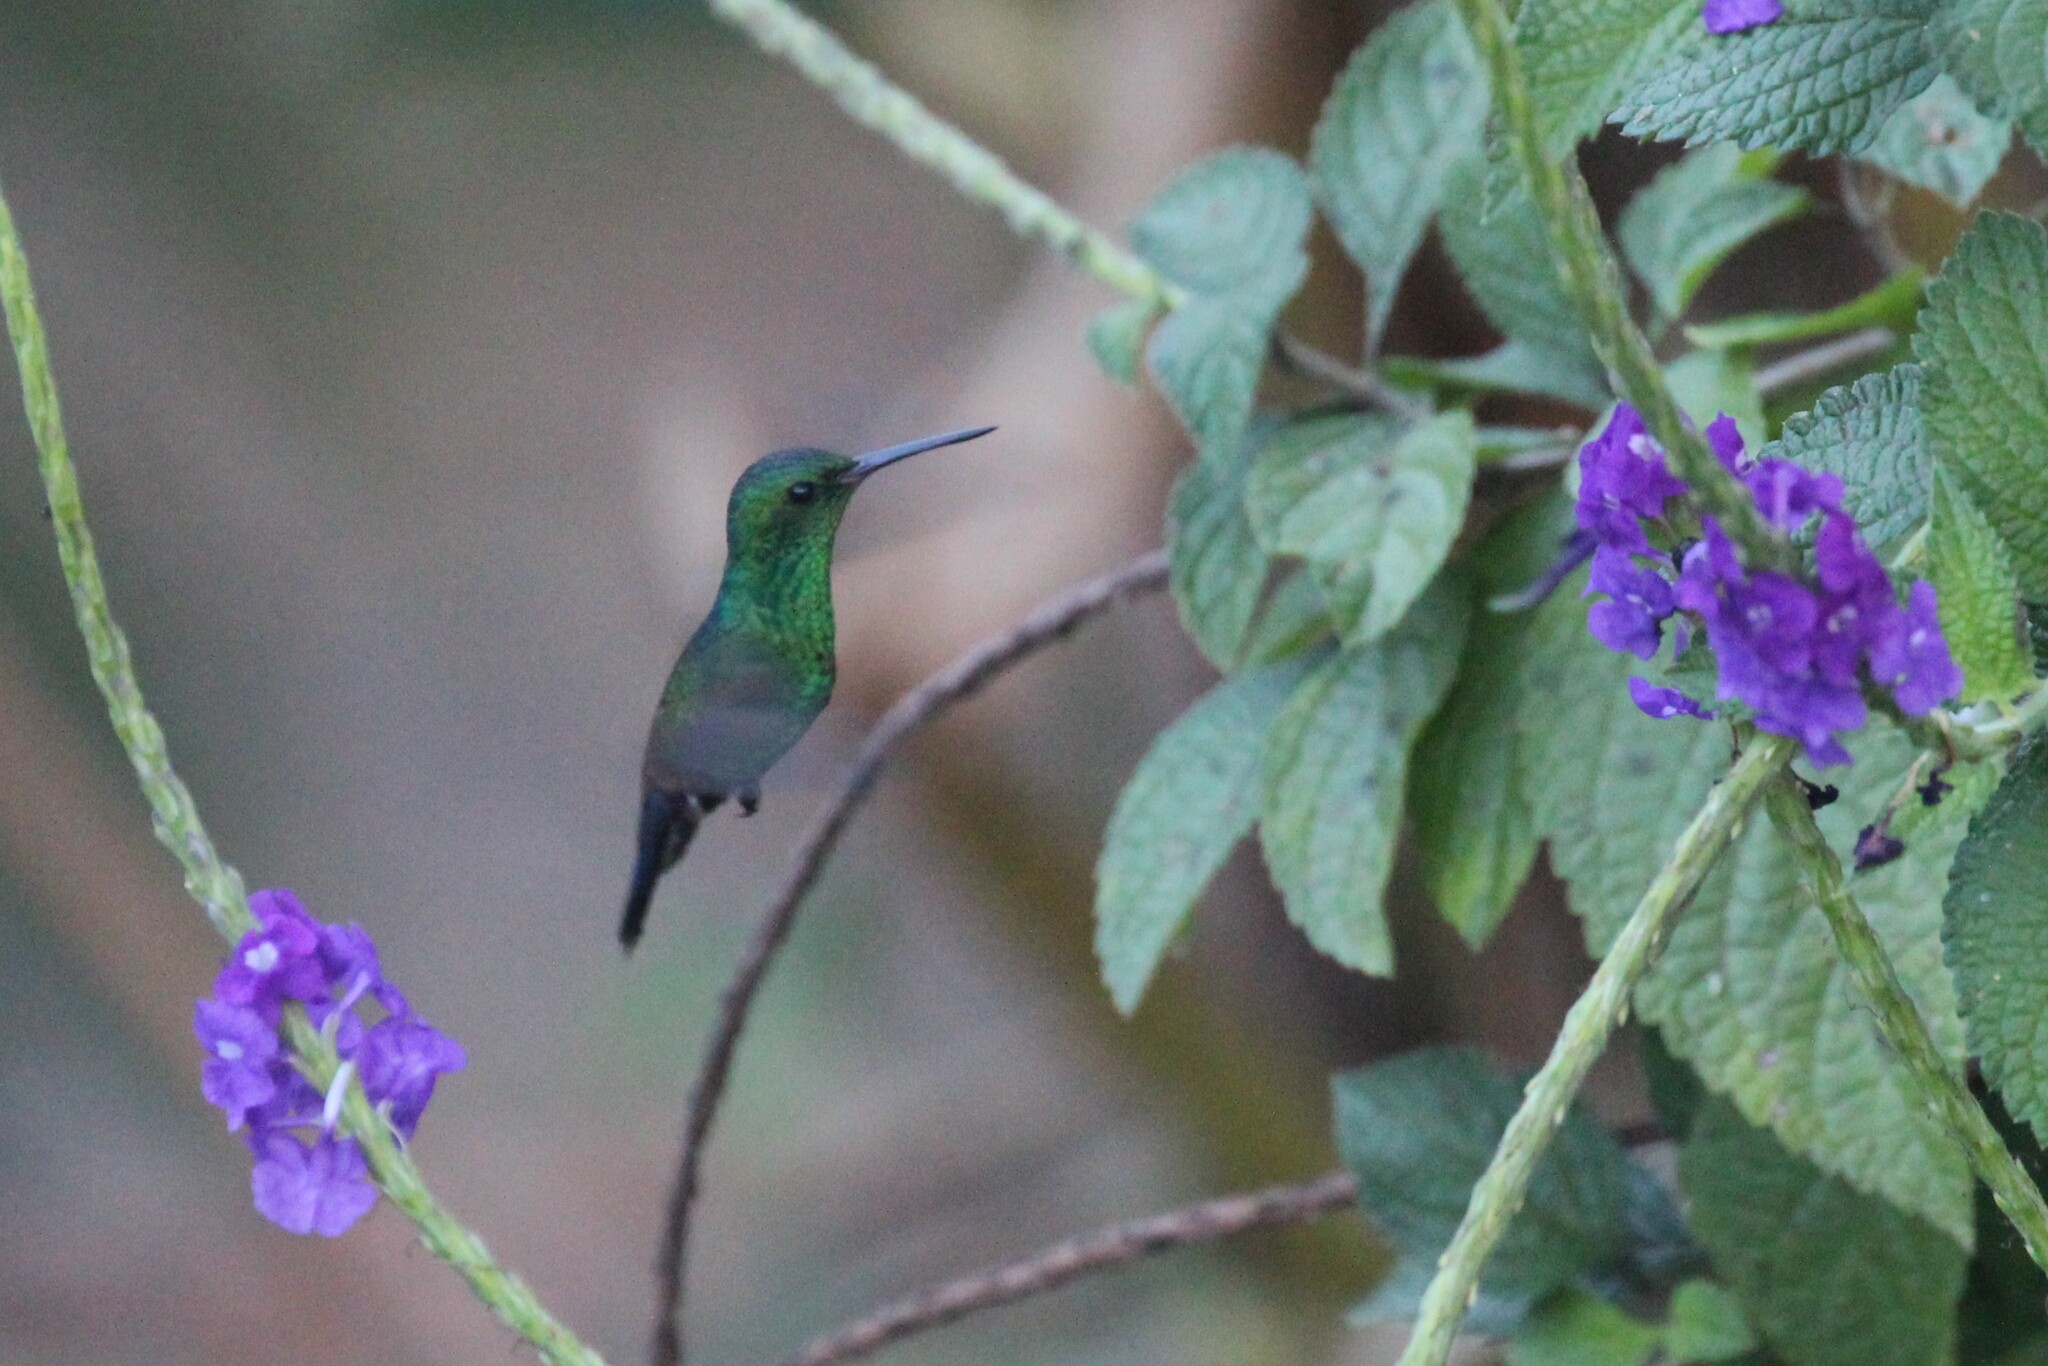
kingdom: Animalia
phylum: Chordata
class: Aves
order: Apodiformes
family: Trochilidae
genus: Saucerottia
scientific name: Saucerottia hoffmanni
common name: Blue-vented hummingbird
